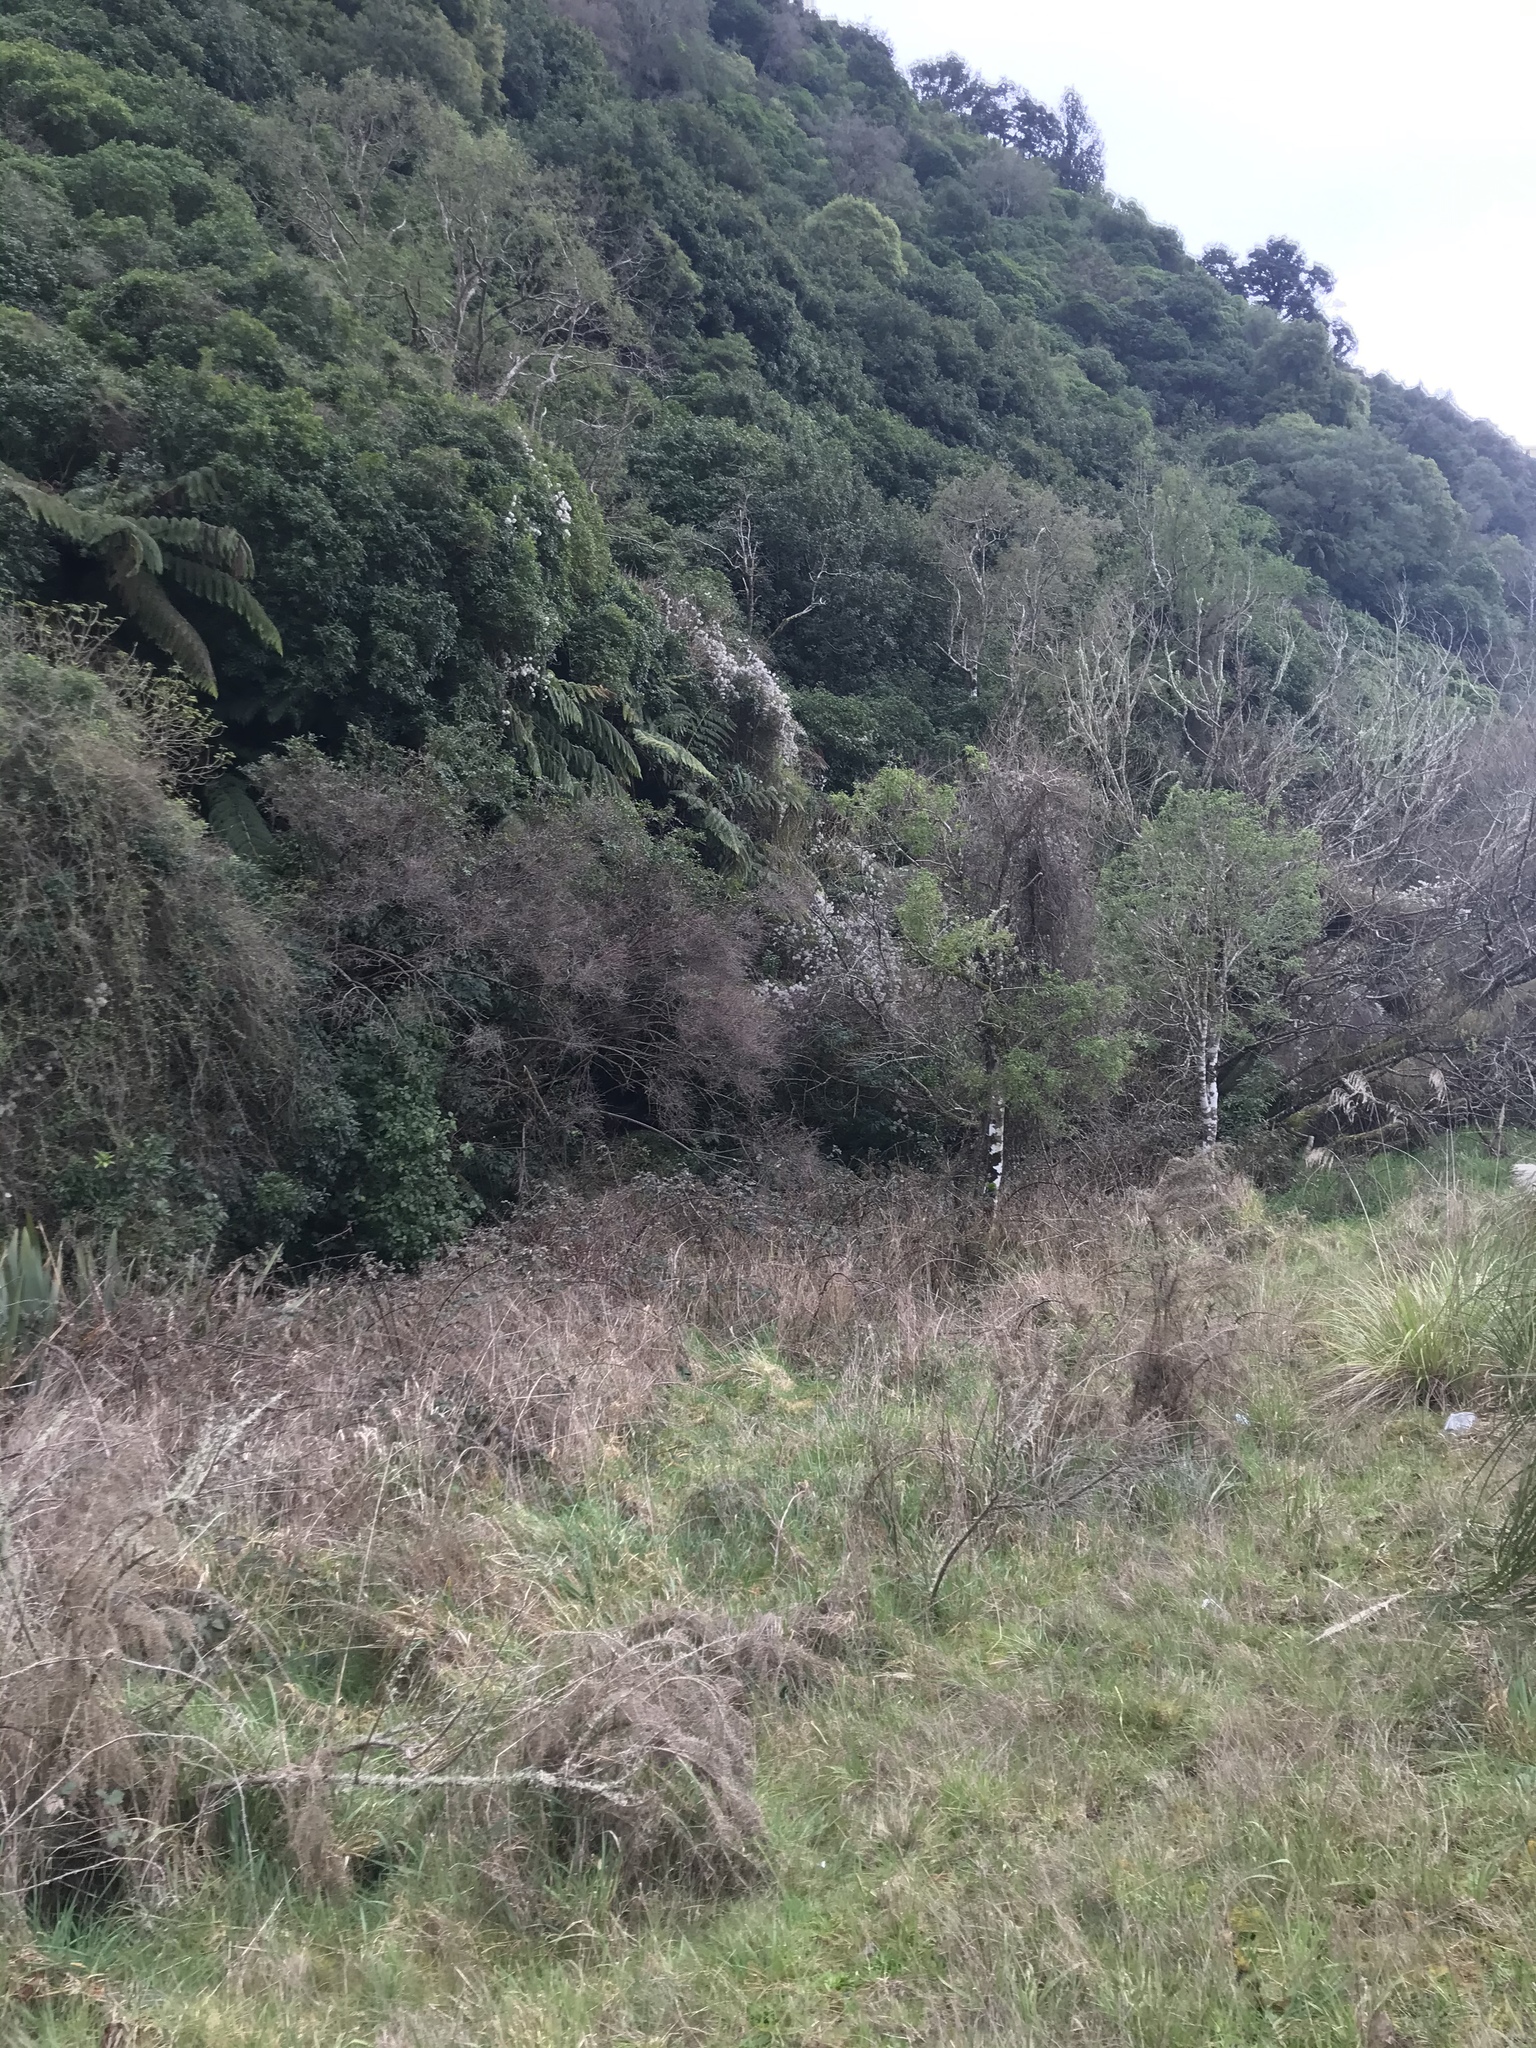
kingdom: Plantae
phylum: Tracheophyta
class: Magnoliopsida
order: Ranunculales
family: Ranunculaceae
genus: Clematis
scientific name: Clematis vitalba
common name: Evergreen clematis
